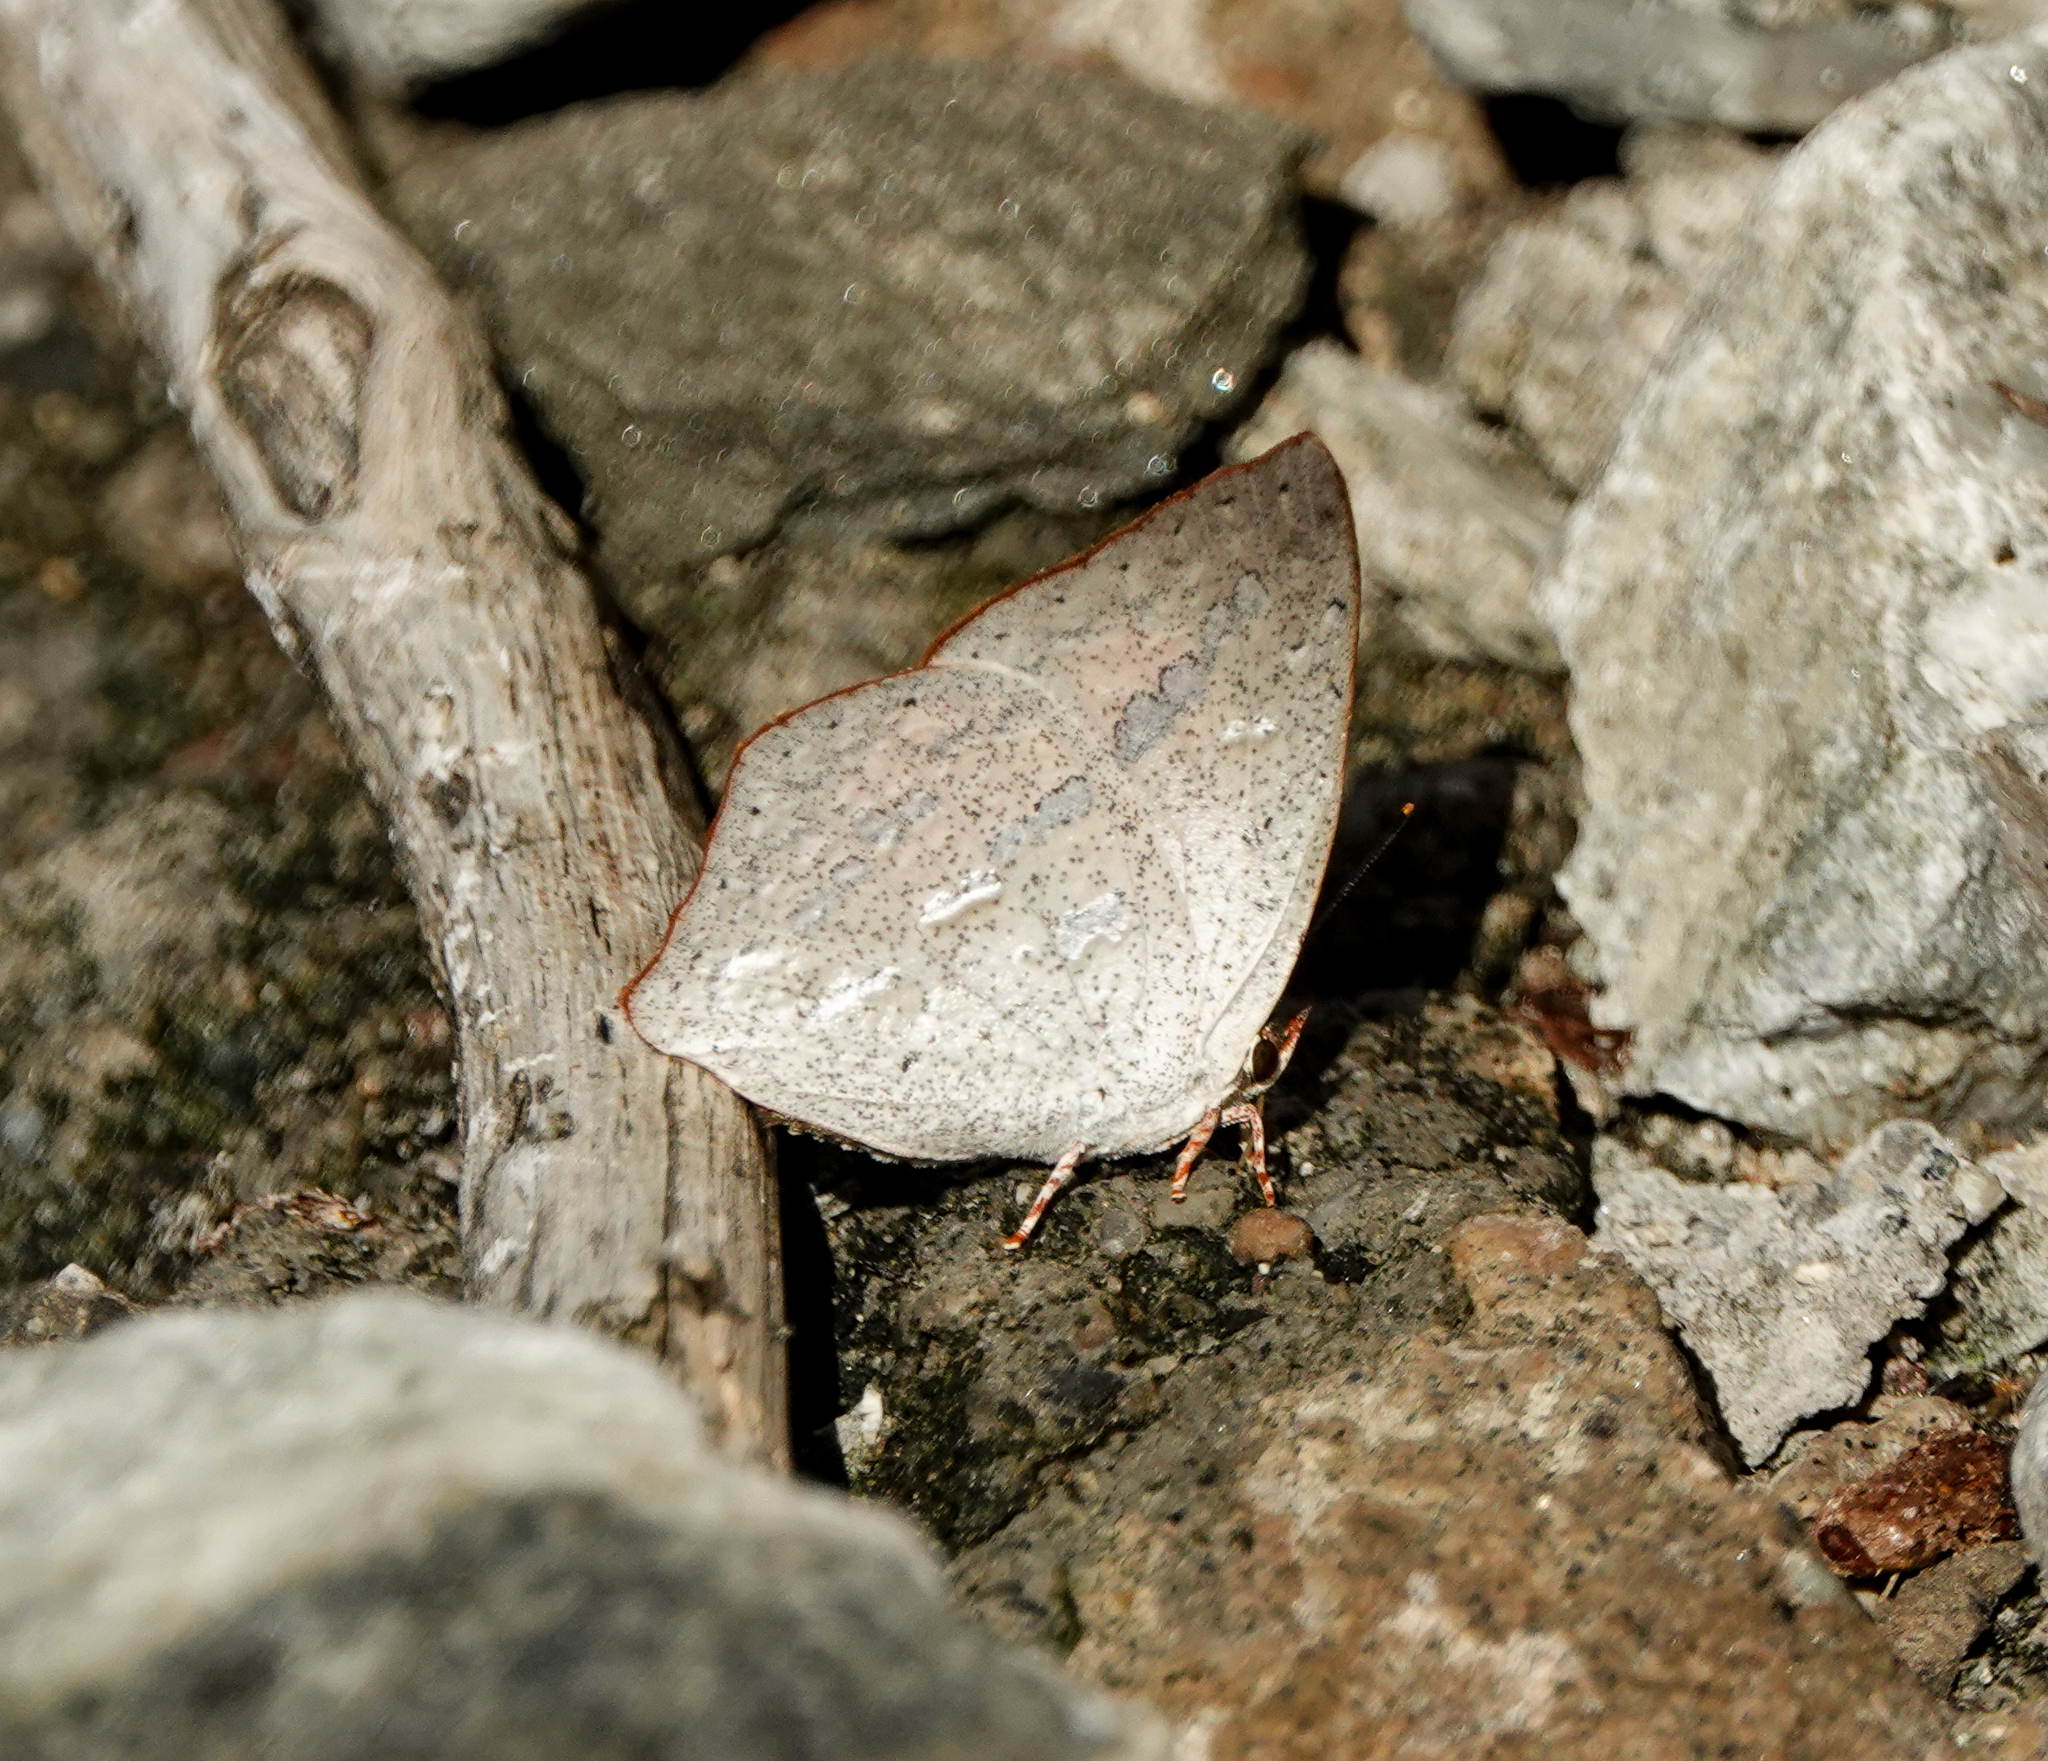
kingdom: Animalia
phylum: Arthropoda
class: Insecta
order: Lepidoptera
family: Lycaenidae
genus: Curetis
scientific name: Curetis acuta
